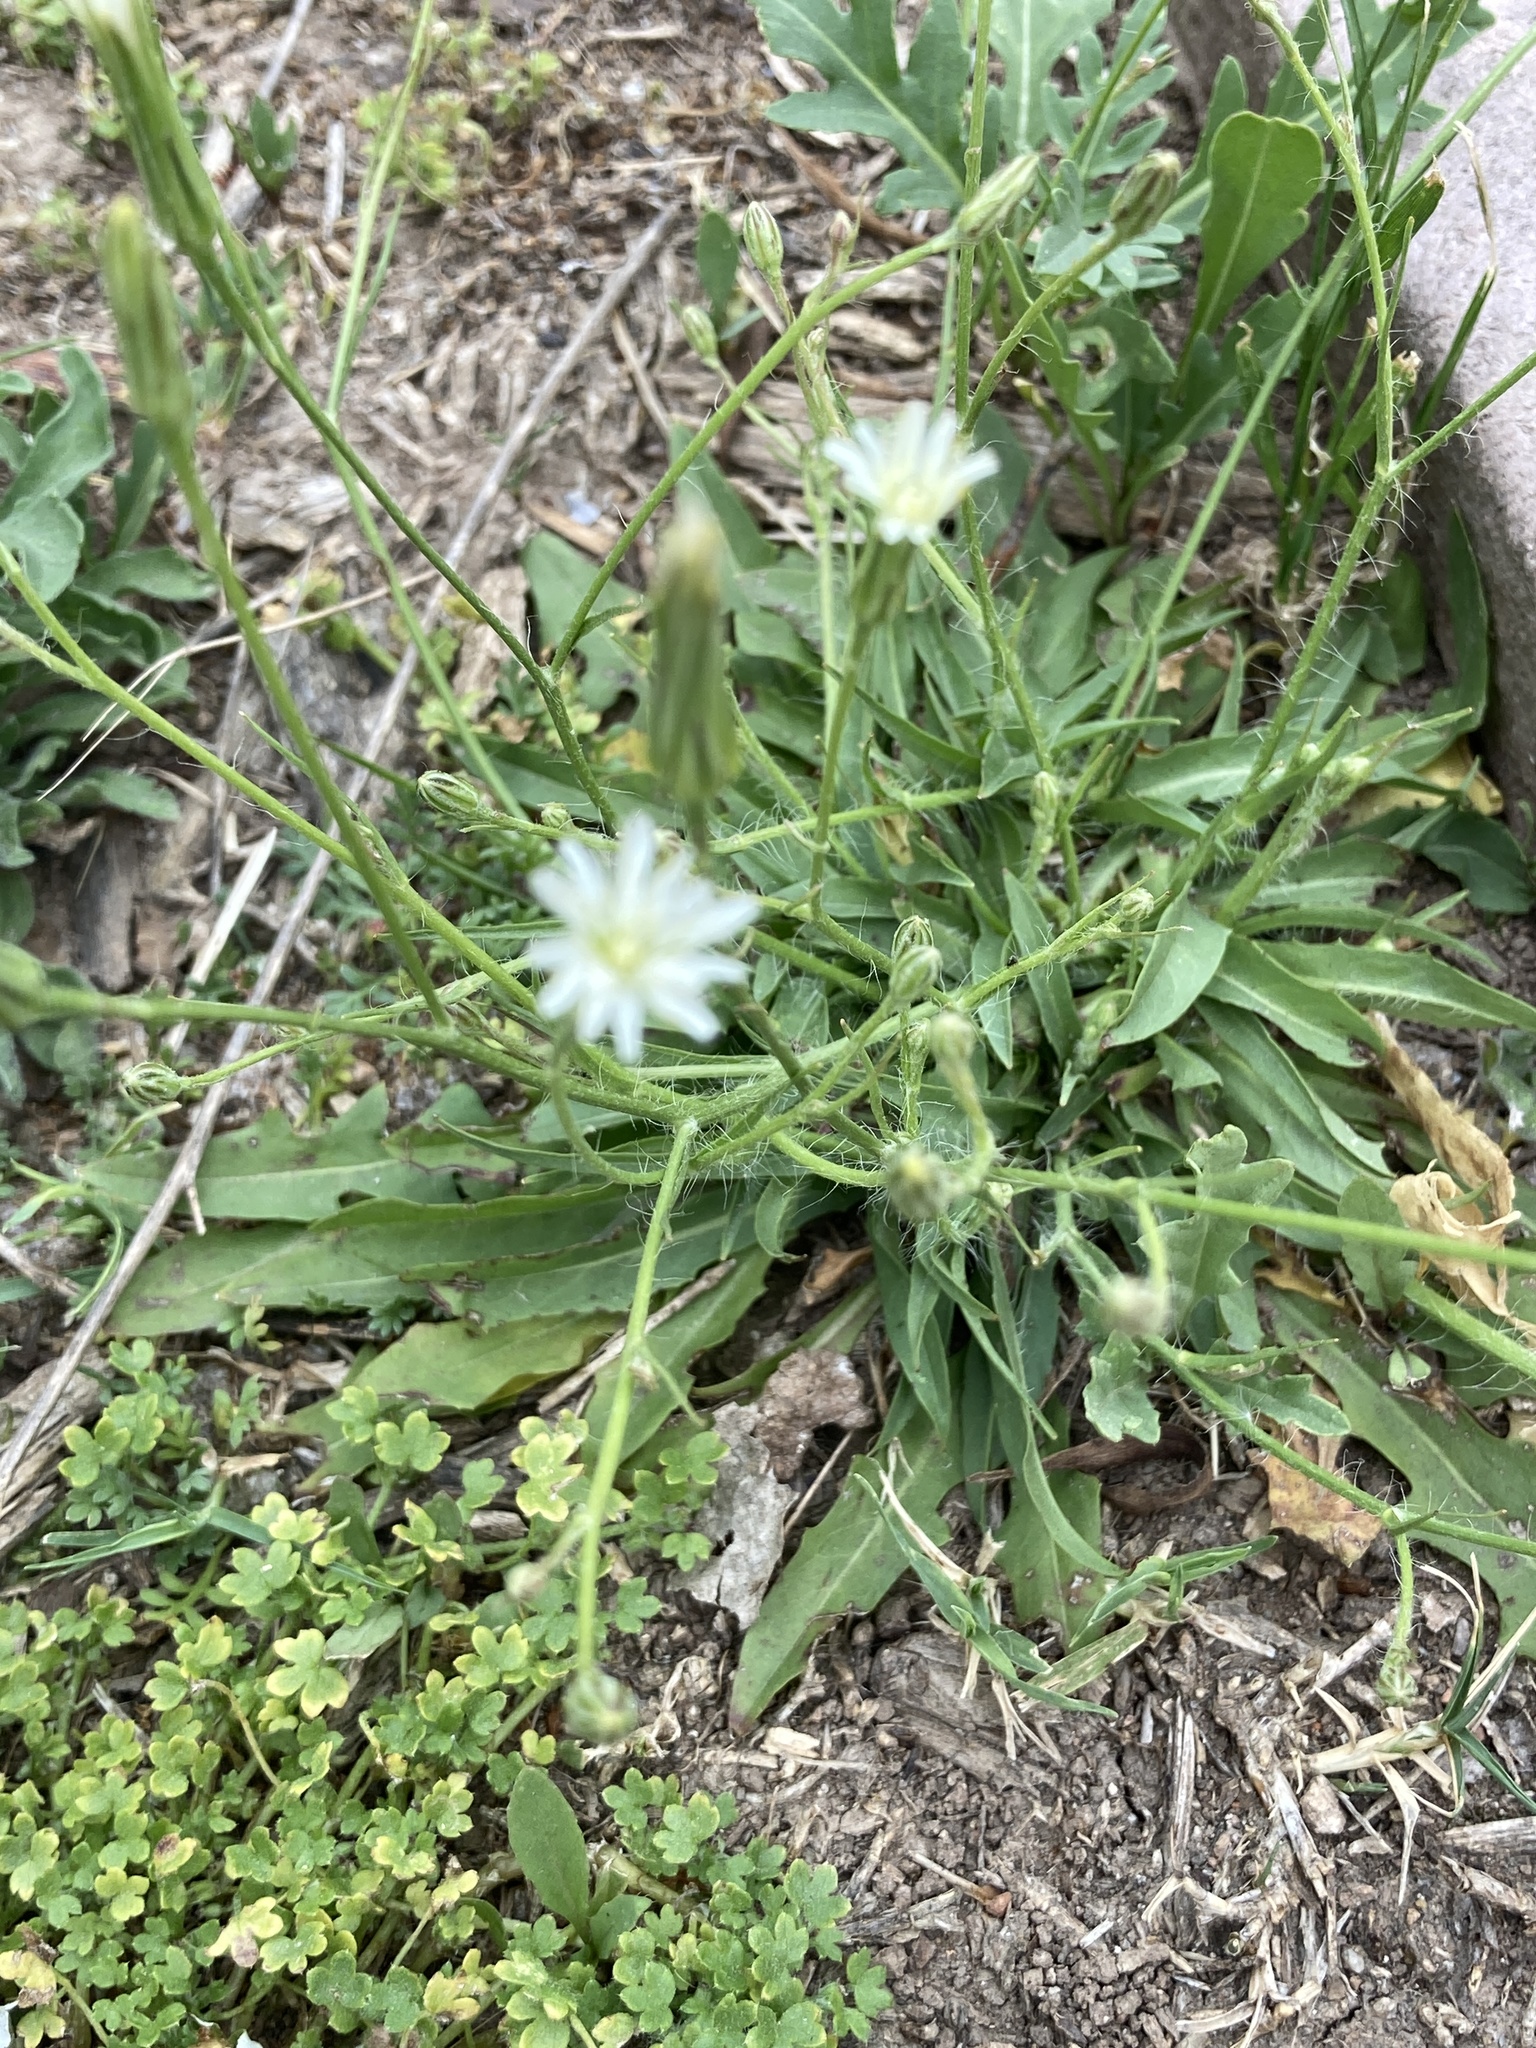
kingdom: Plantae
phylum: Tracheophyta
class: Magnoliopsida
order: Asterales
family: Asteraceae
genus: Hypochaeris
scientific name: Hypochaeris albiflora
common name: White flatweed
